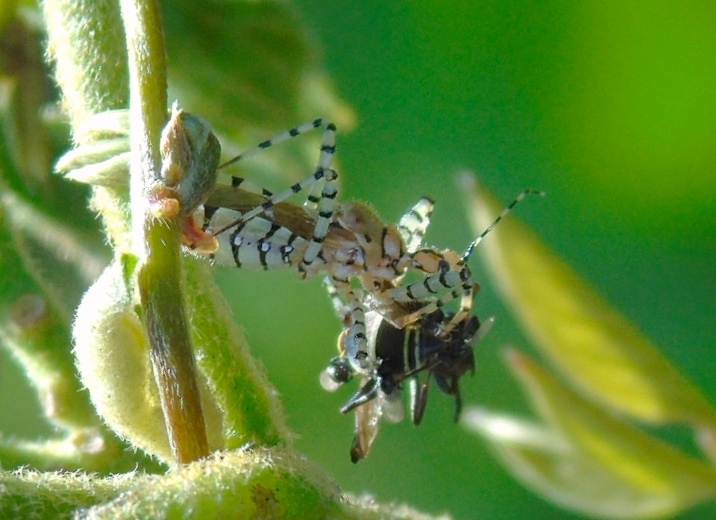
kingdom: Animalia
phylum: Arthropoda
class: Insecta
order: Hemiptera
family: Reduviidae
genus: Pselliopus
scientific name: Pselliopus
